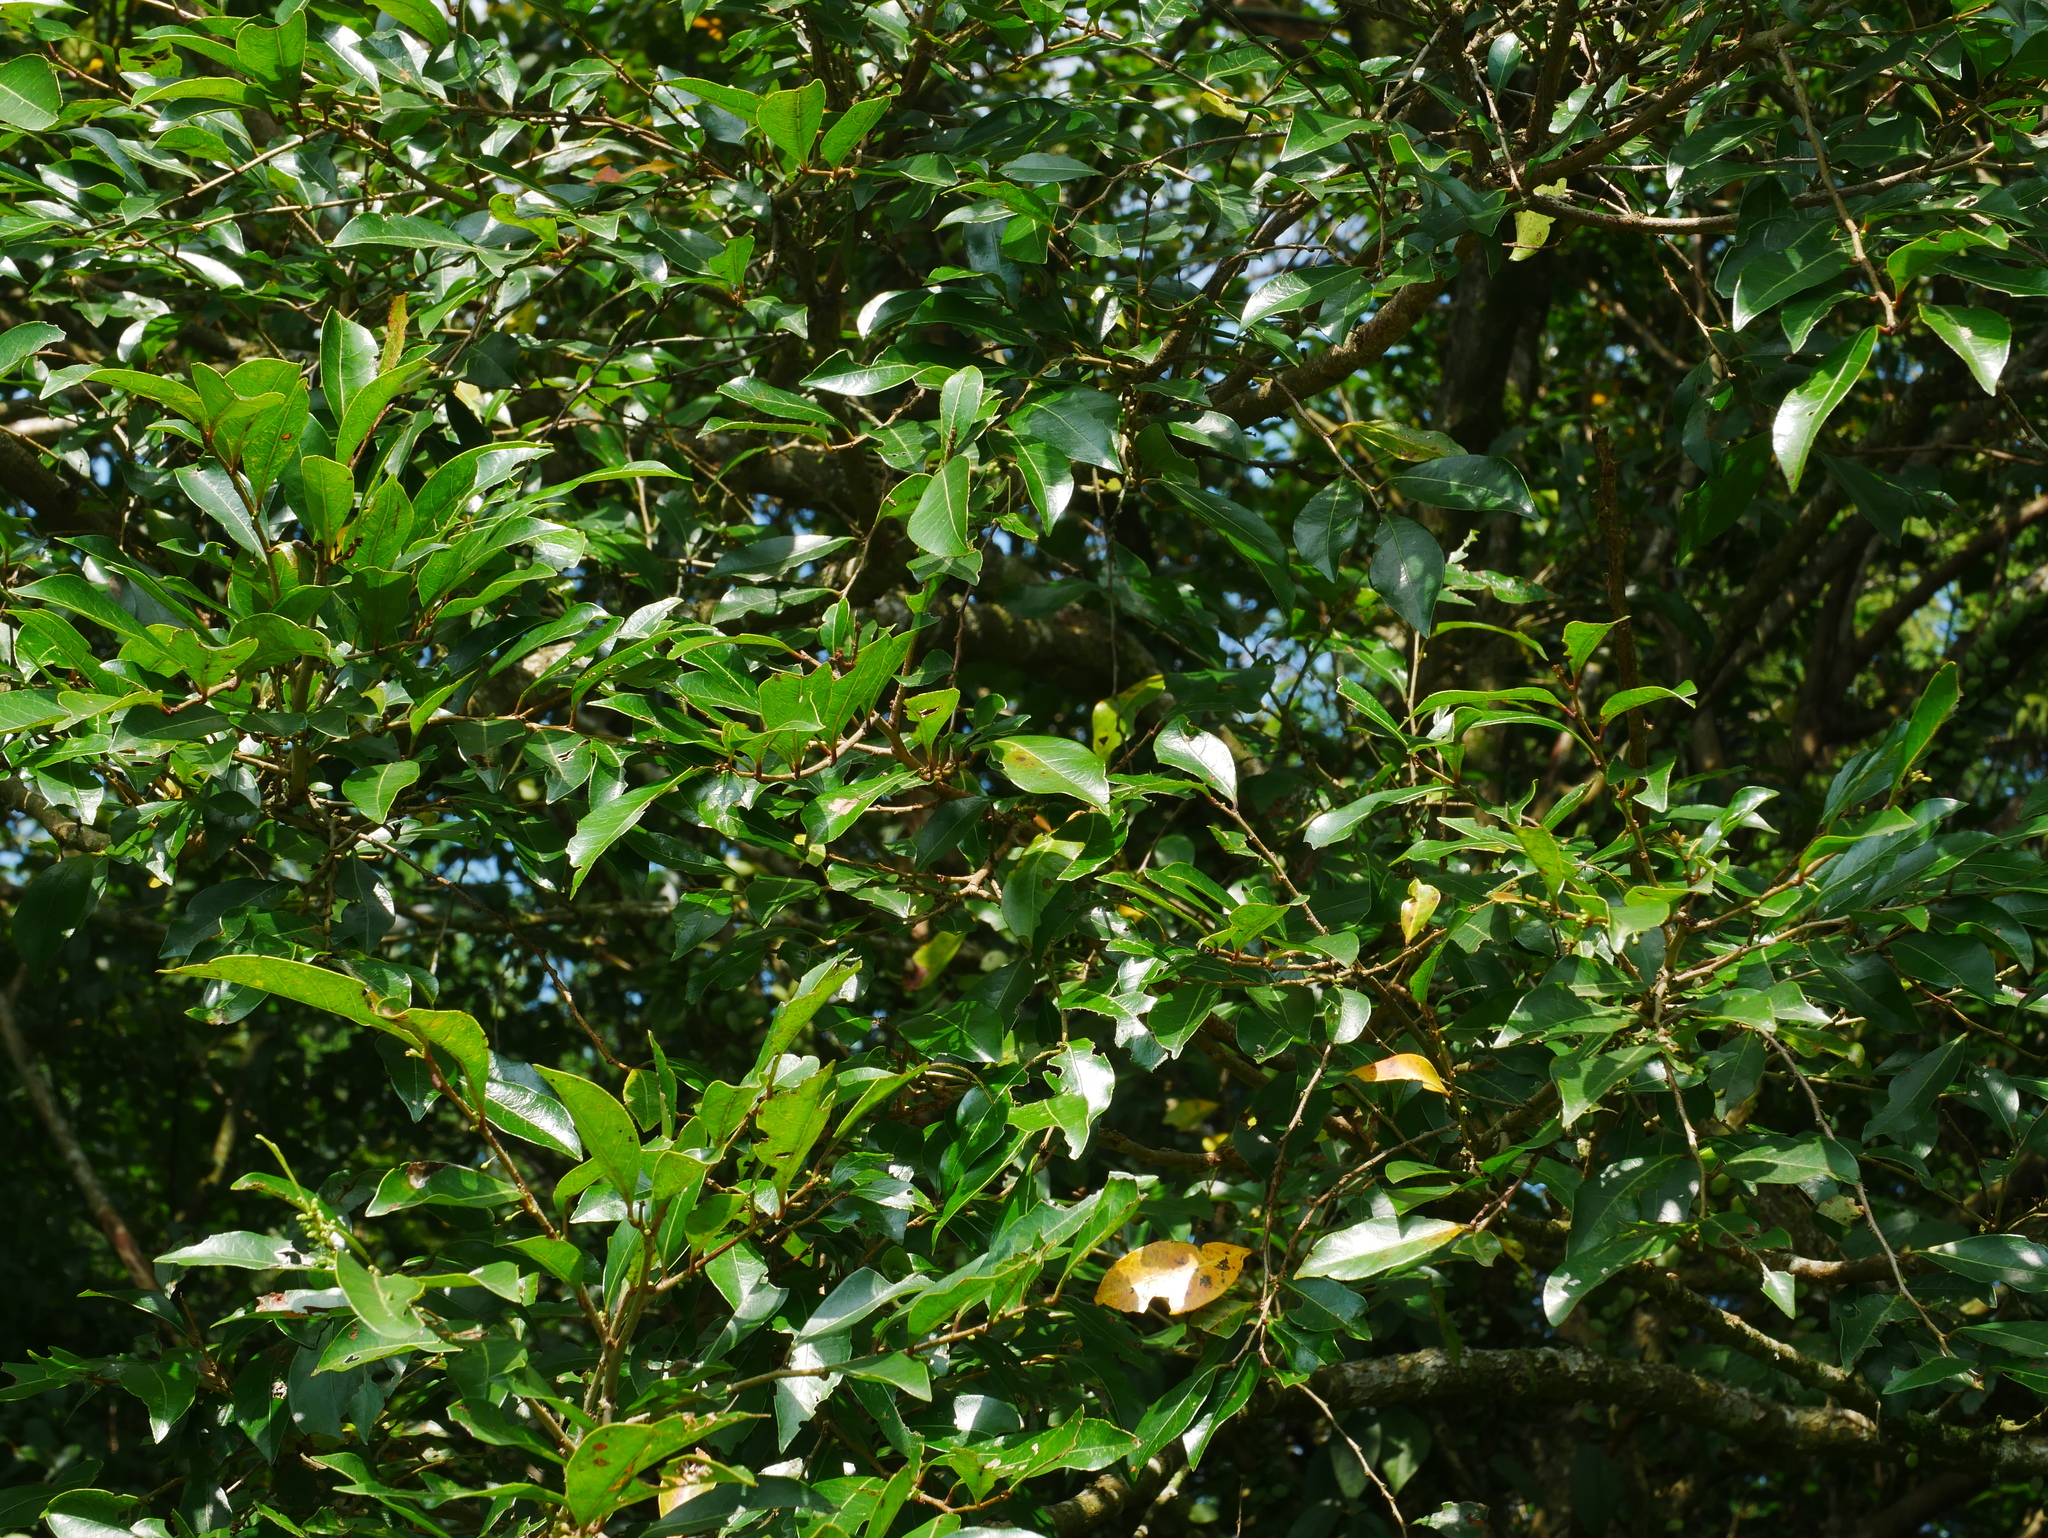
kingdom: Plantae
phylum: Tracheophyta
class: Magnoliopsida
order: Malpighiales
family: Phyllanthaceae
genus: Glochidion
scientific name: Glochidion rubrum
